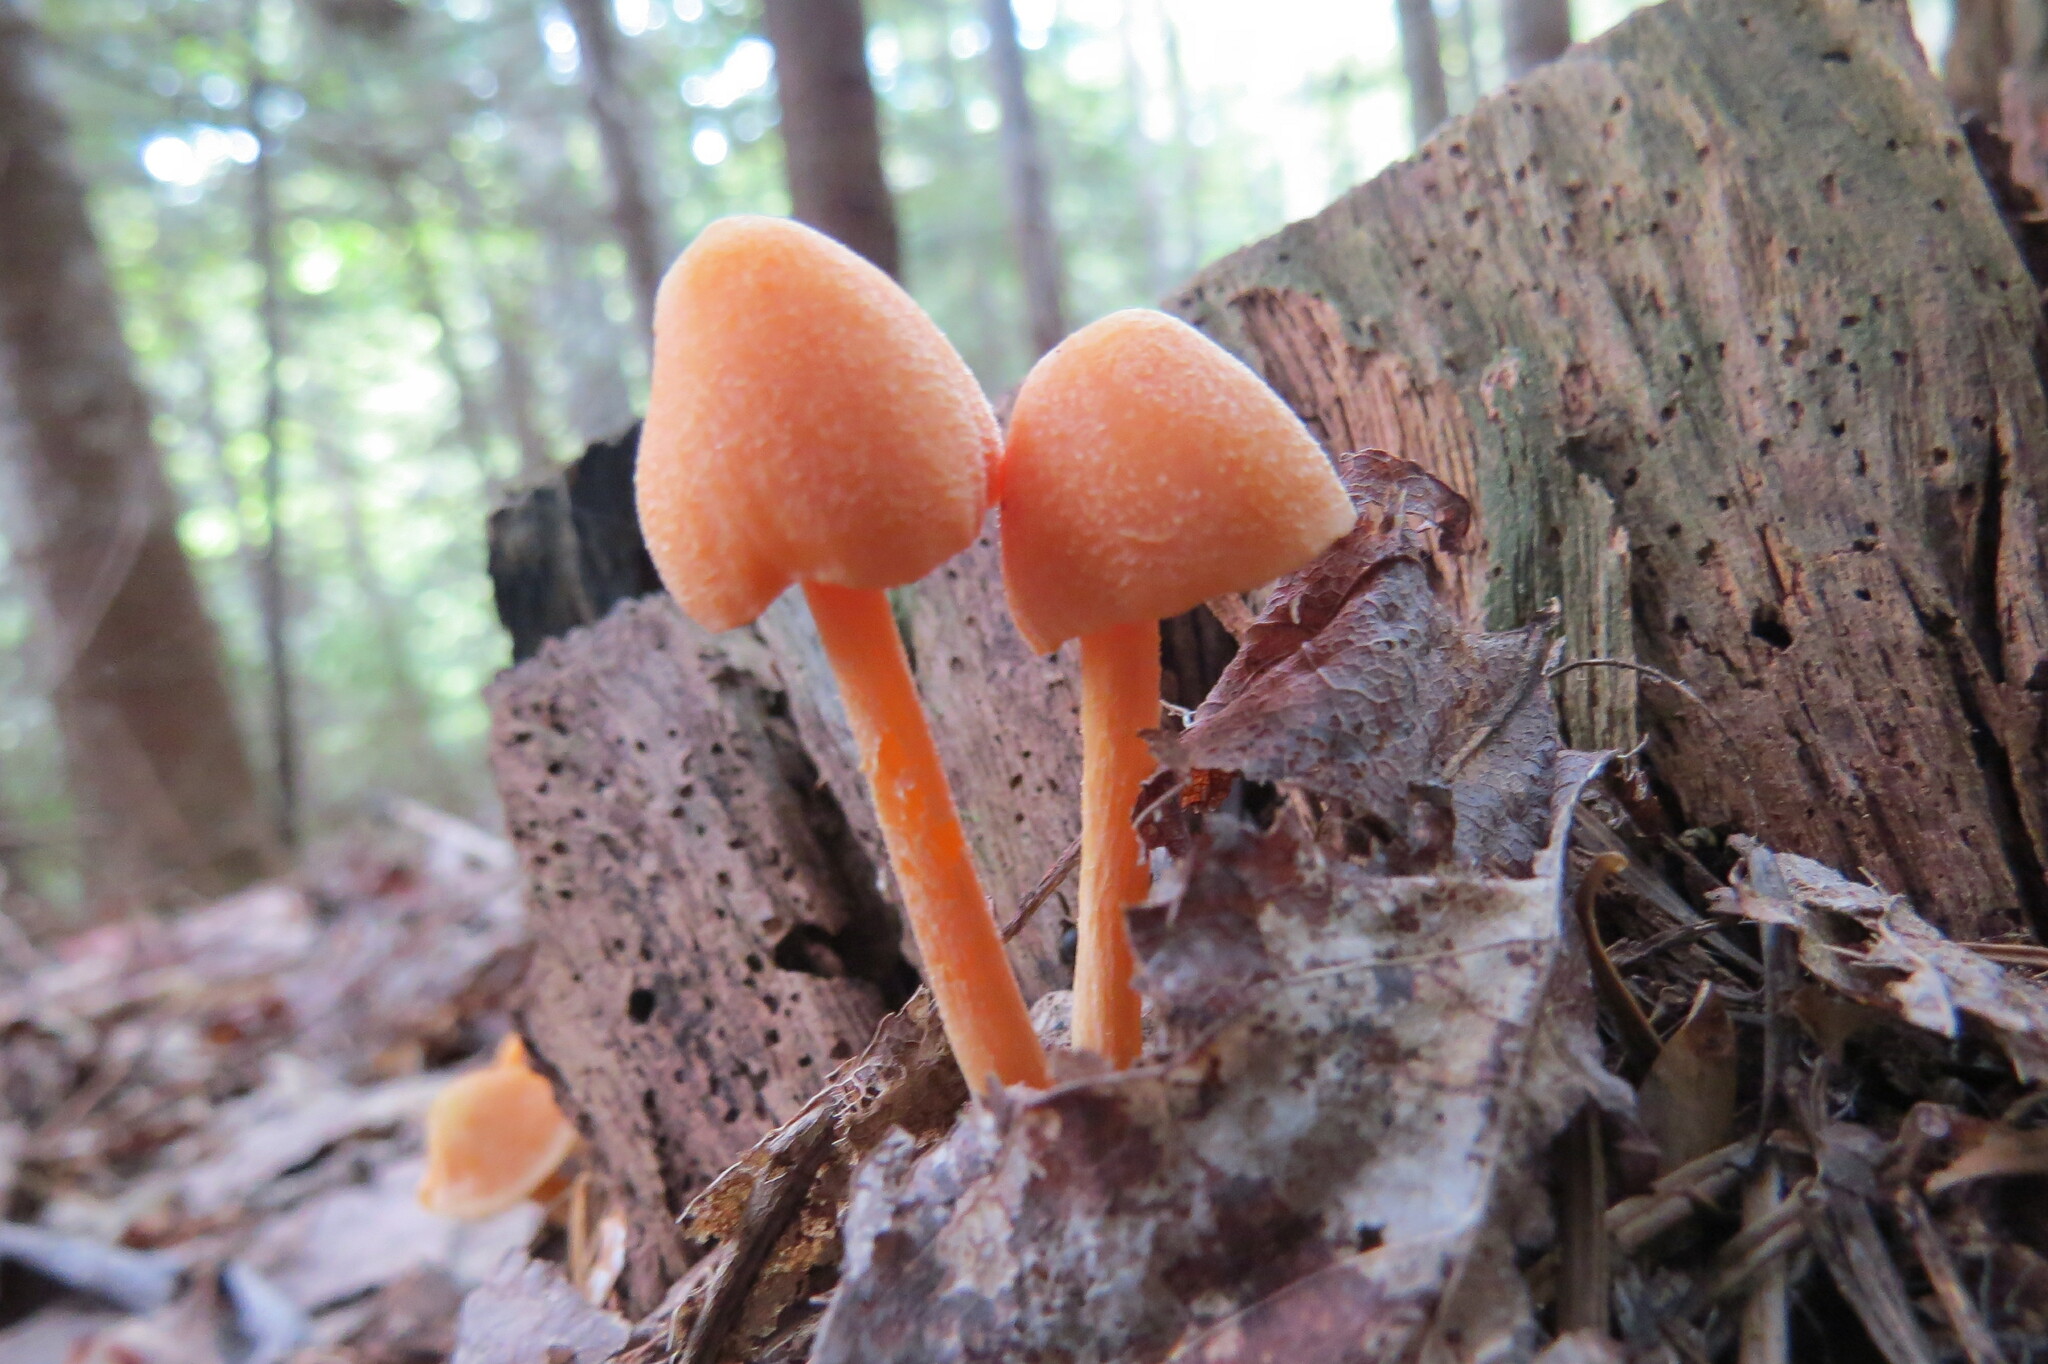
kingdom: Fungi
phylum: Basidiomycota
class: Agaricomycetes
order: Agaricales
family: Entolomataceae
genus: Entoloma
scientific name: Entoloma quadratum
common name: Salmon pinkgill
